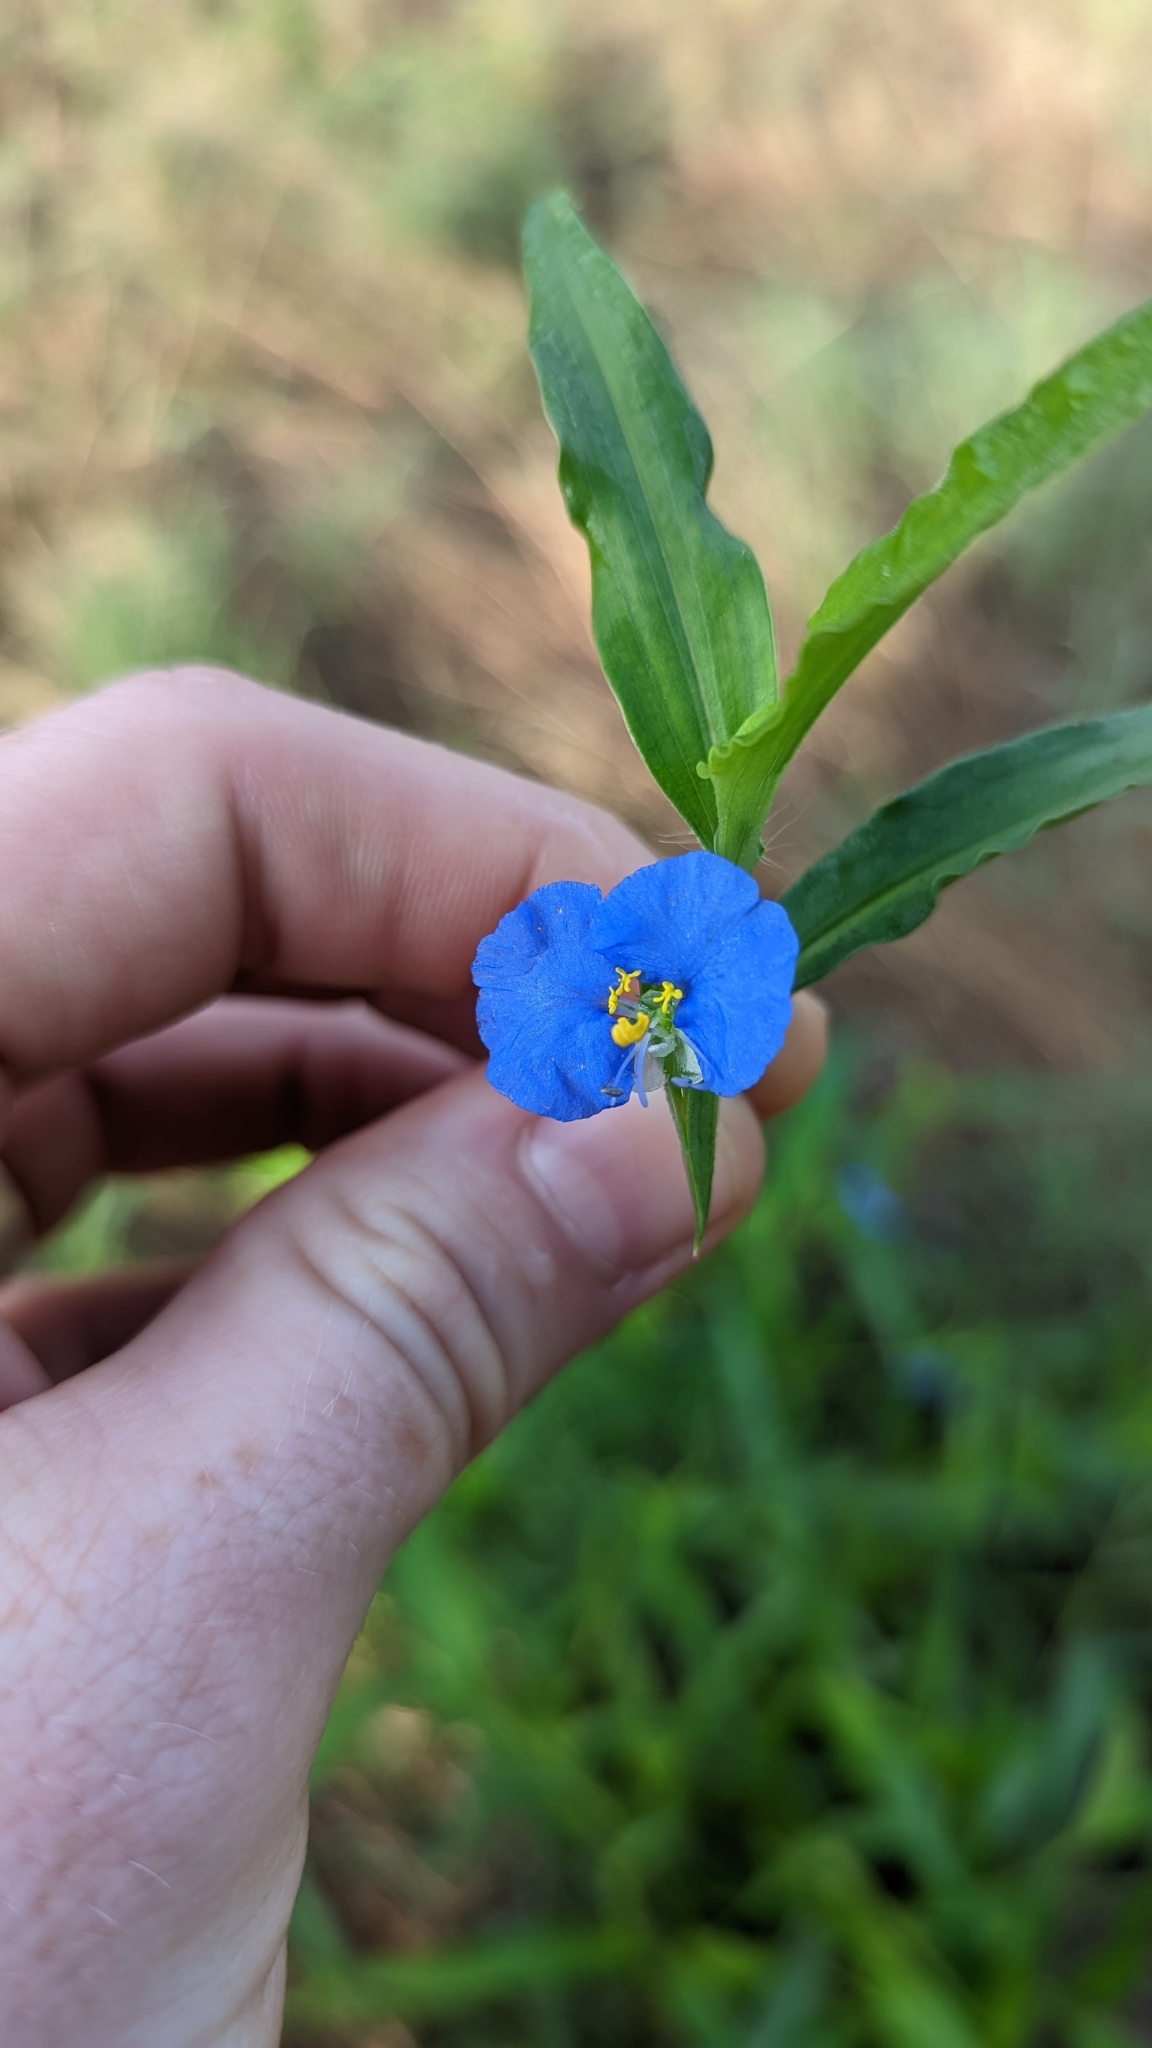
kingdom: Plantae
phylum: Tracheophyta
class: Liliopsida
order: Commelinales
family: Commelinaceae
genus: Commelina
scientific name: Commelina erecta
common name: Blousel blommetjie
